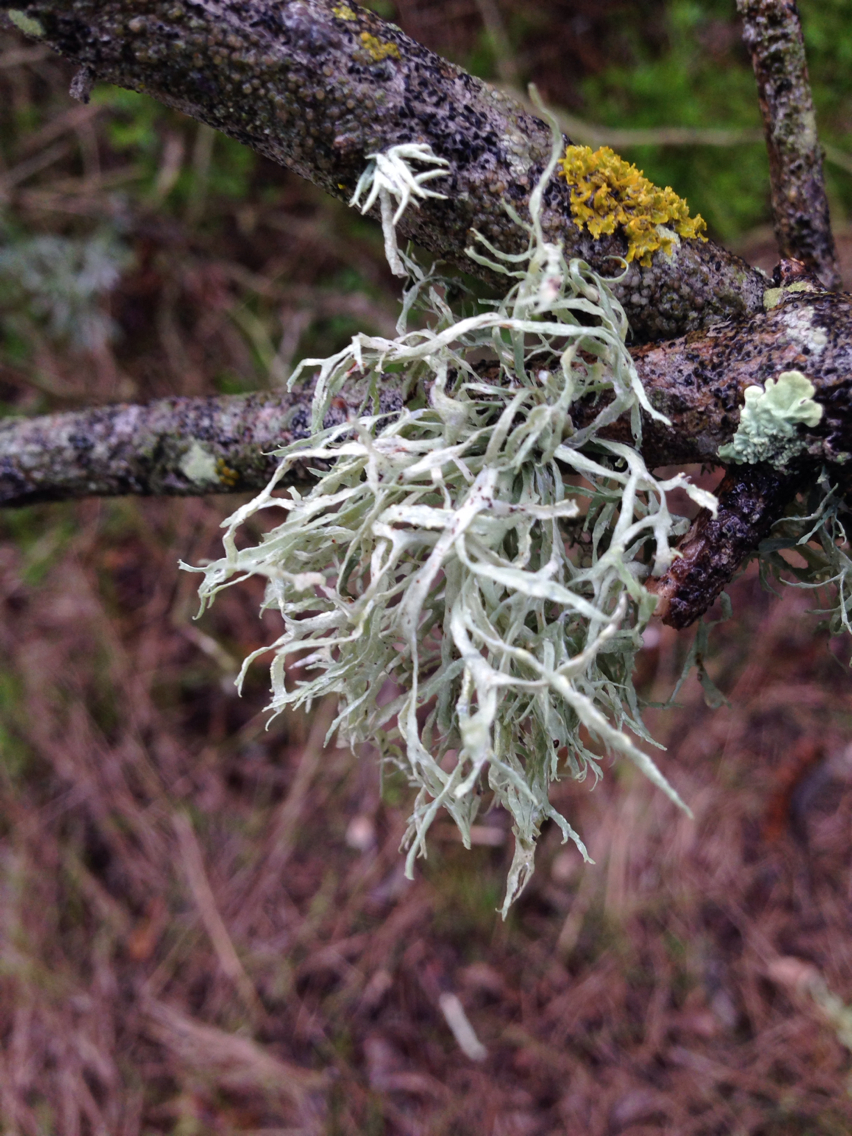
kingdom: Fungi
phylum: Ascomycota
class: Lecanoromycetes
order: Lecanorales
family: Ramalinaceae
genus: Ramalina
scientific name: Ramalina farinacea
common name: Farinose cartilage lichen
